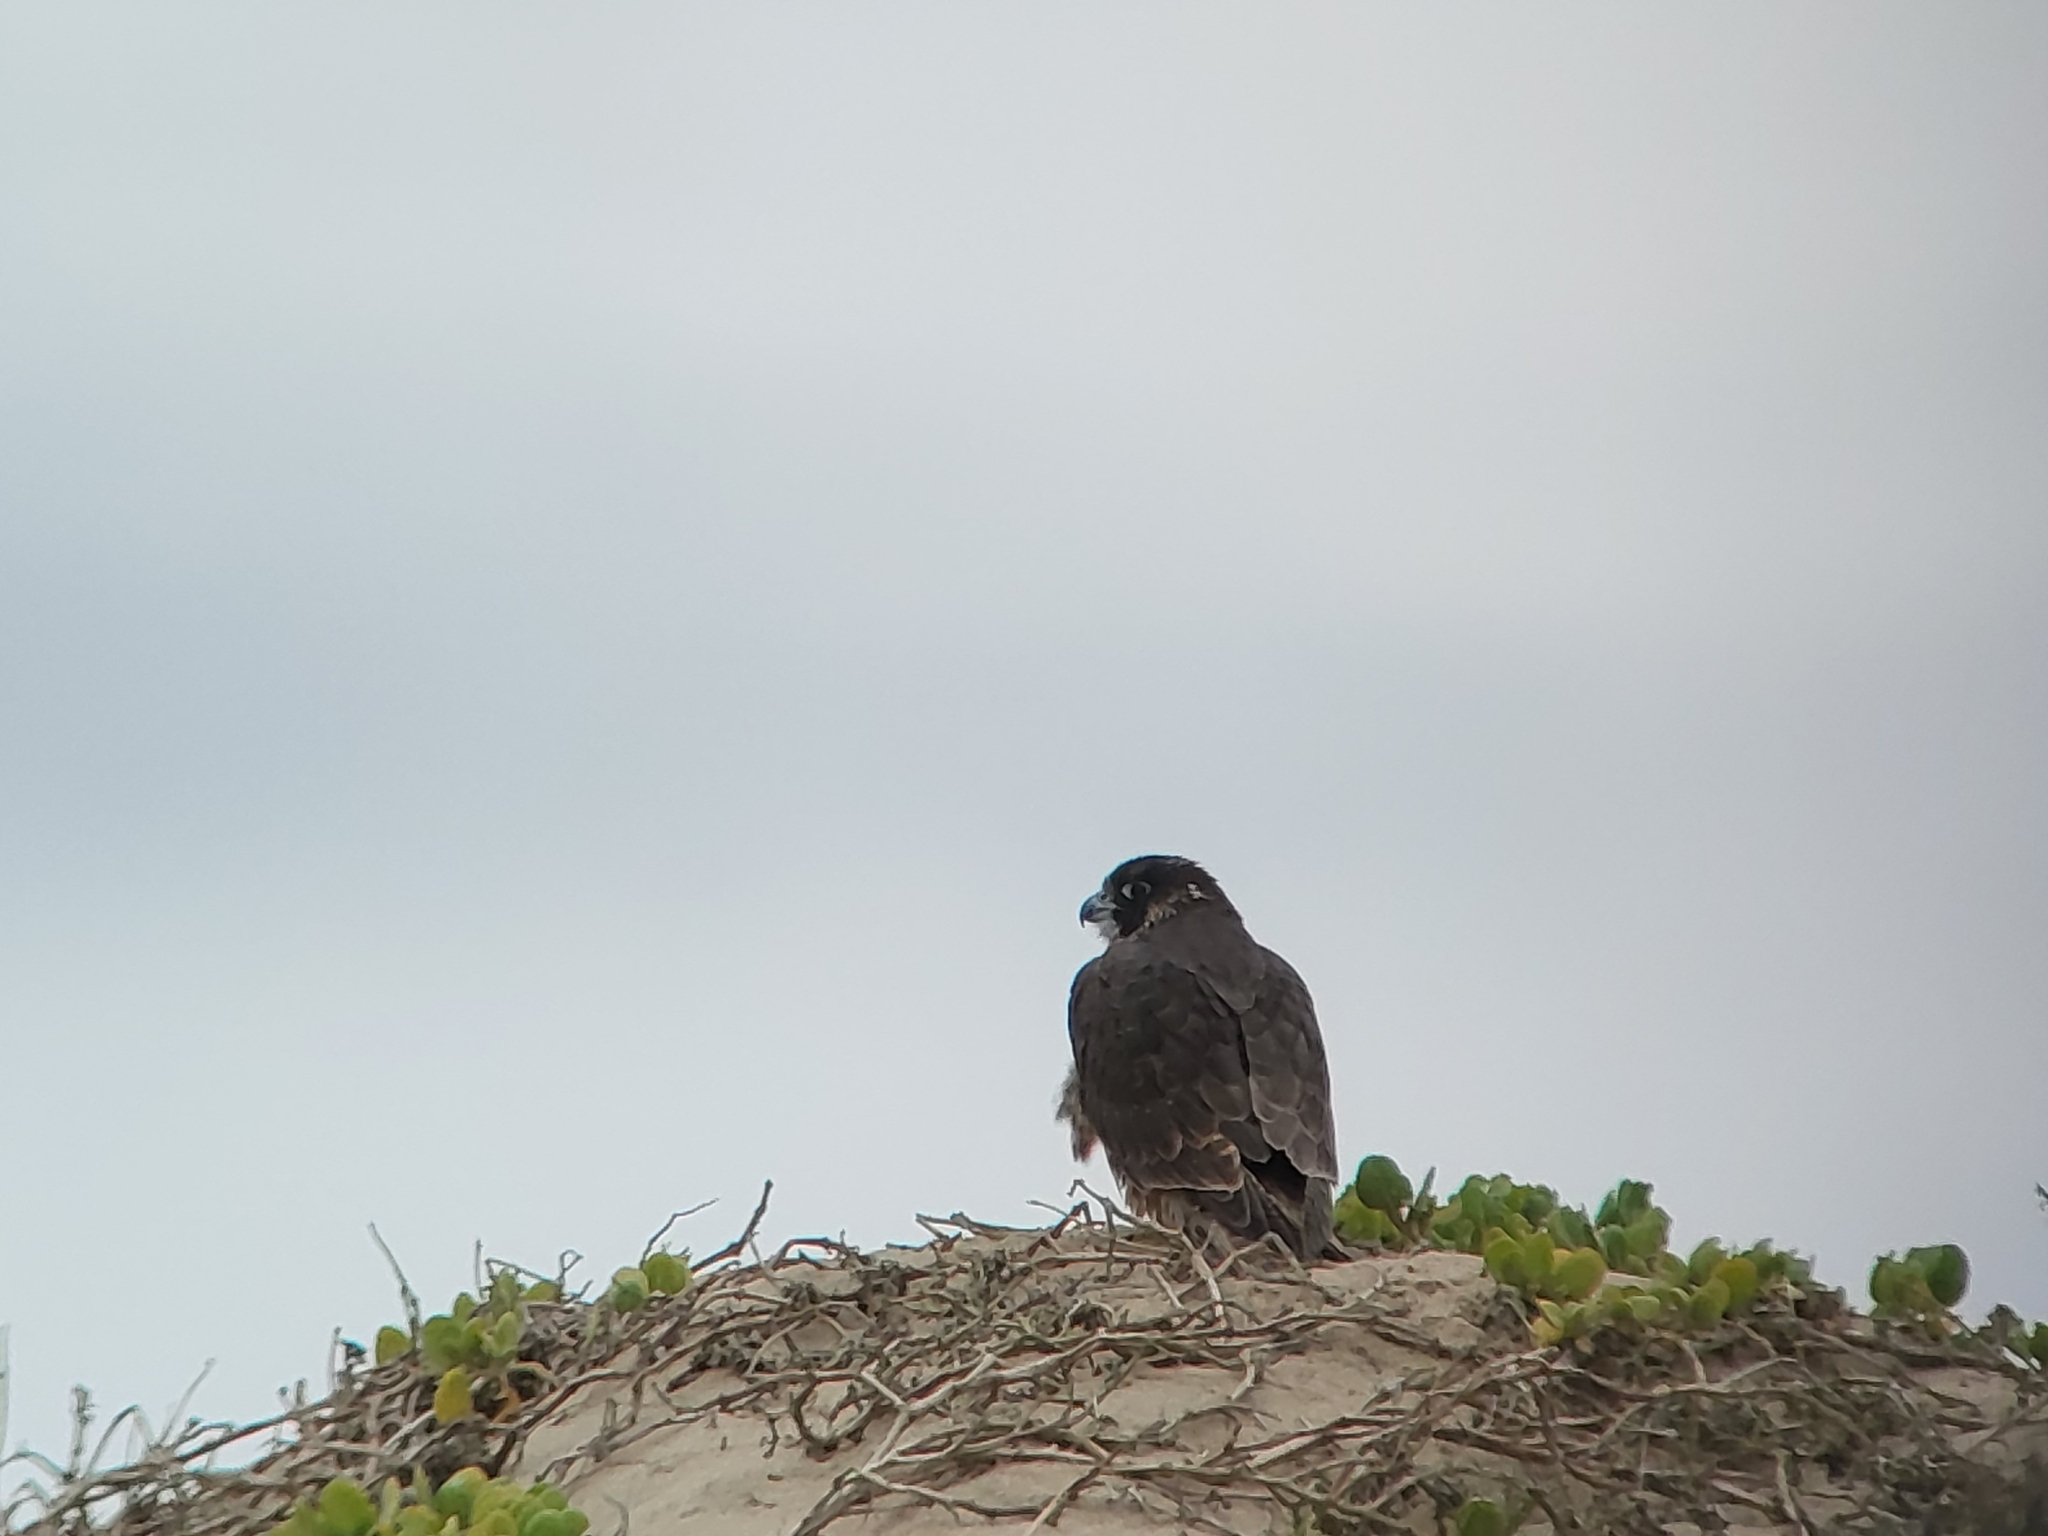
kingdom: Animalia
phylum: Chordata
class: Aves
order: Falconiformes
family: Falconidae
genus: Falco
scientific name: Falco peregrinus
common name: Peregrine falcon
